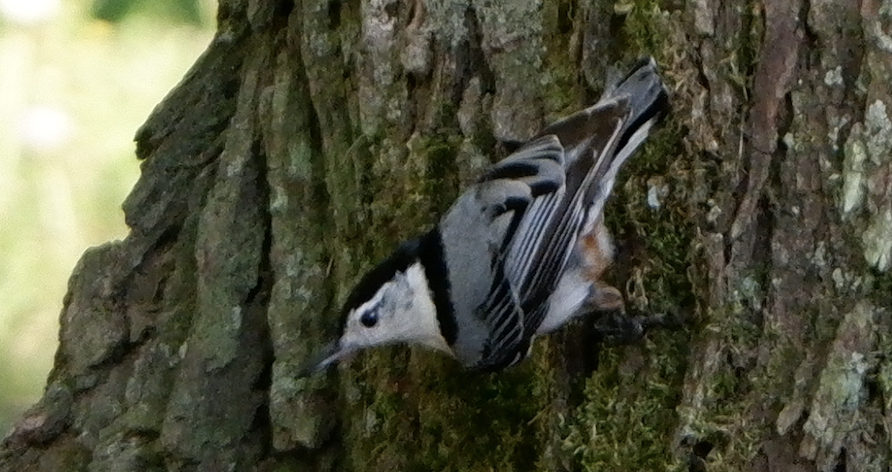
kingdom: Animalia
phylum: Chordata
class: Aves
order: Passeriformes
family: Sittidae
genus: Sitta
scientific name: Sitta carolinensis
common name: White-breasted nuthatch
